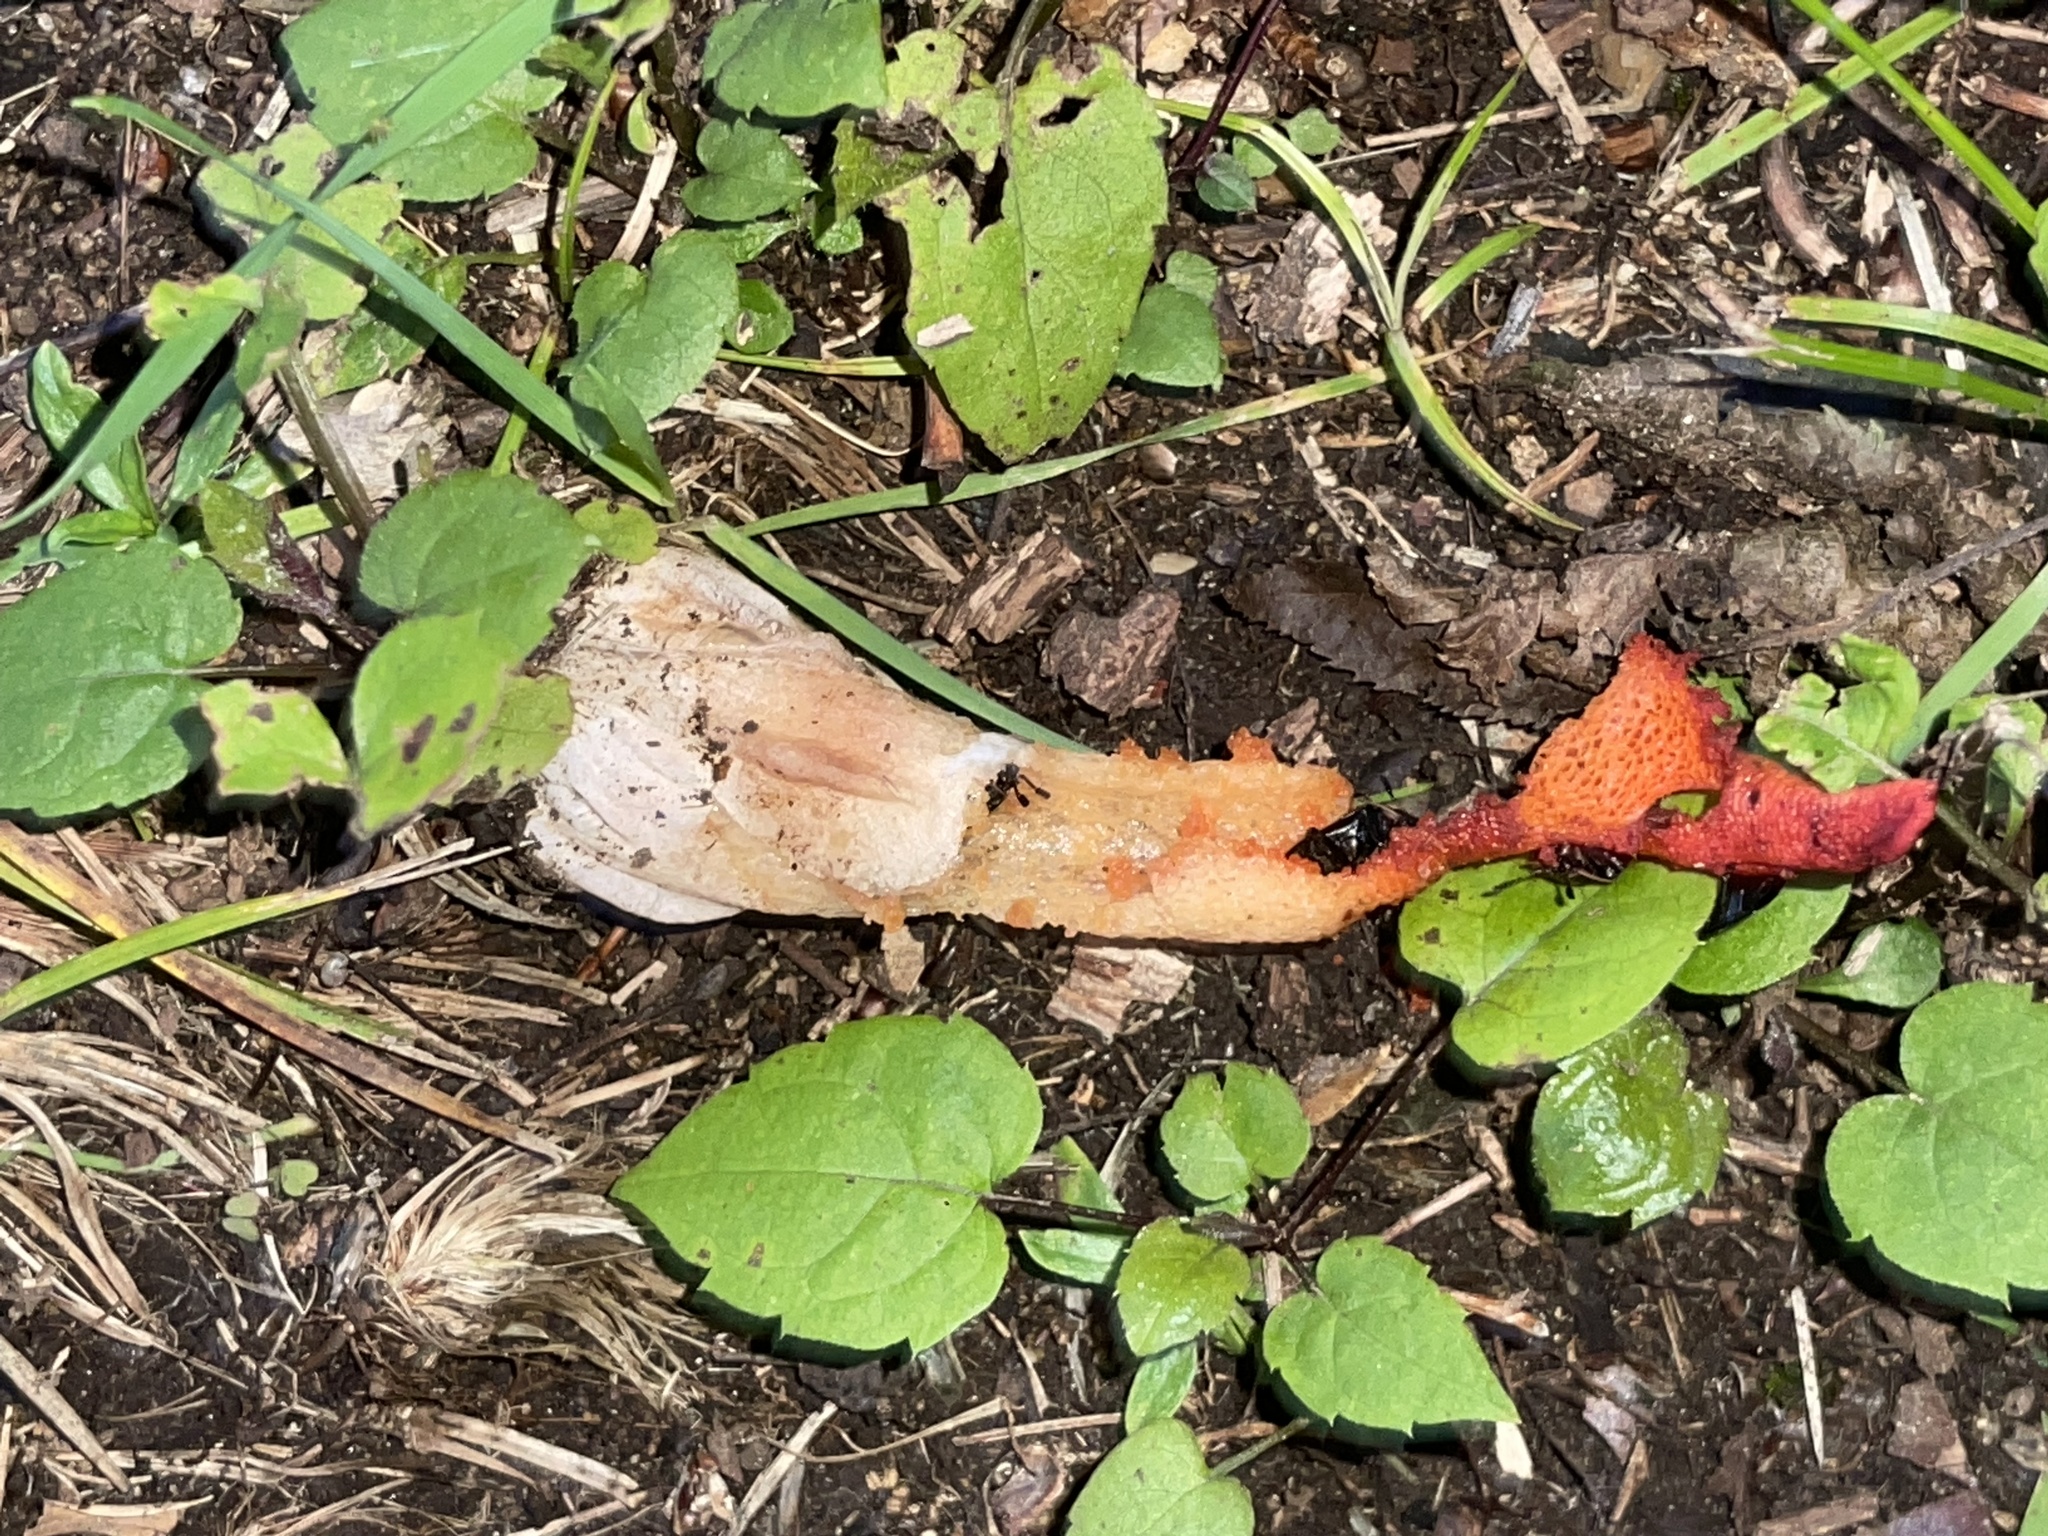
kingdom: Fungi
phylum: Basidiomycota
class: Agaricomycetes
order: Phallales
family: Phallaceae
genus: Mutinus
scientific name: Mutinus elegans
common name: Devil's dipstick
